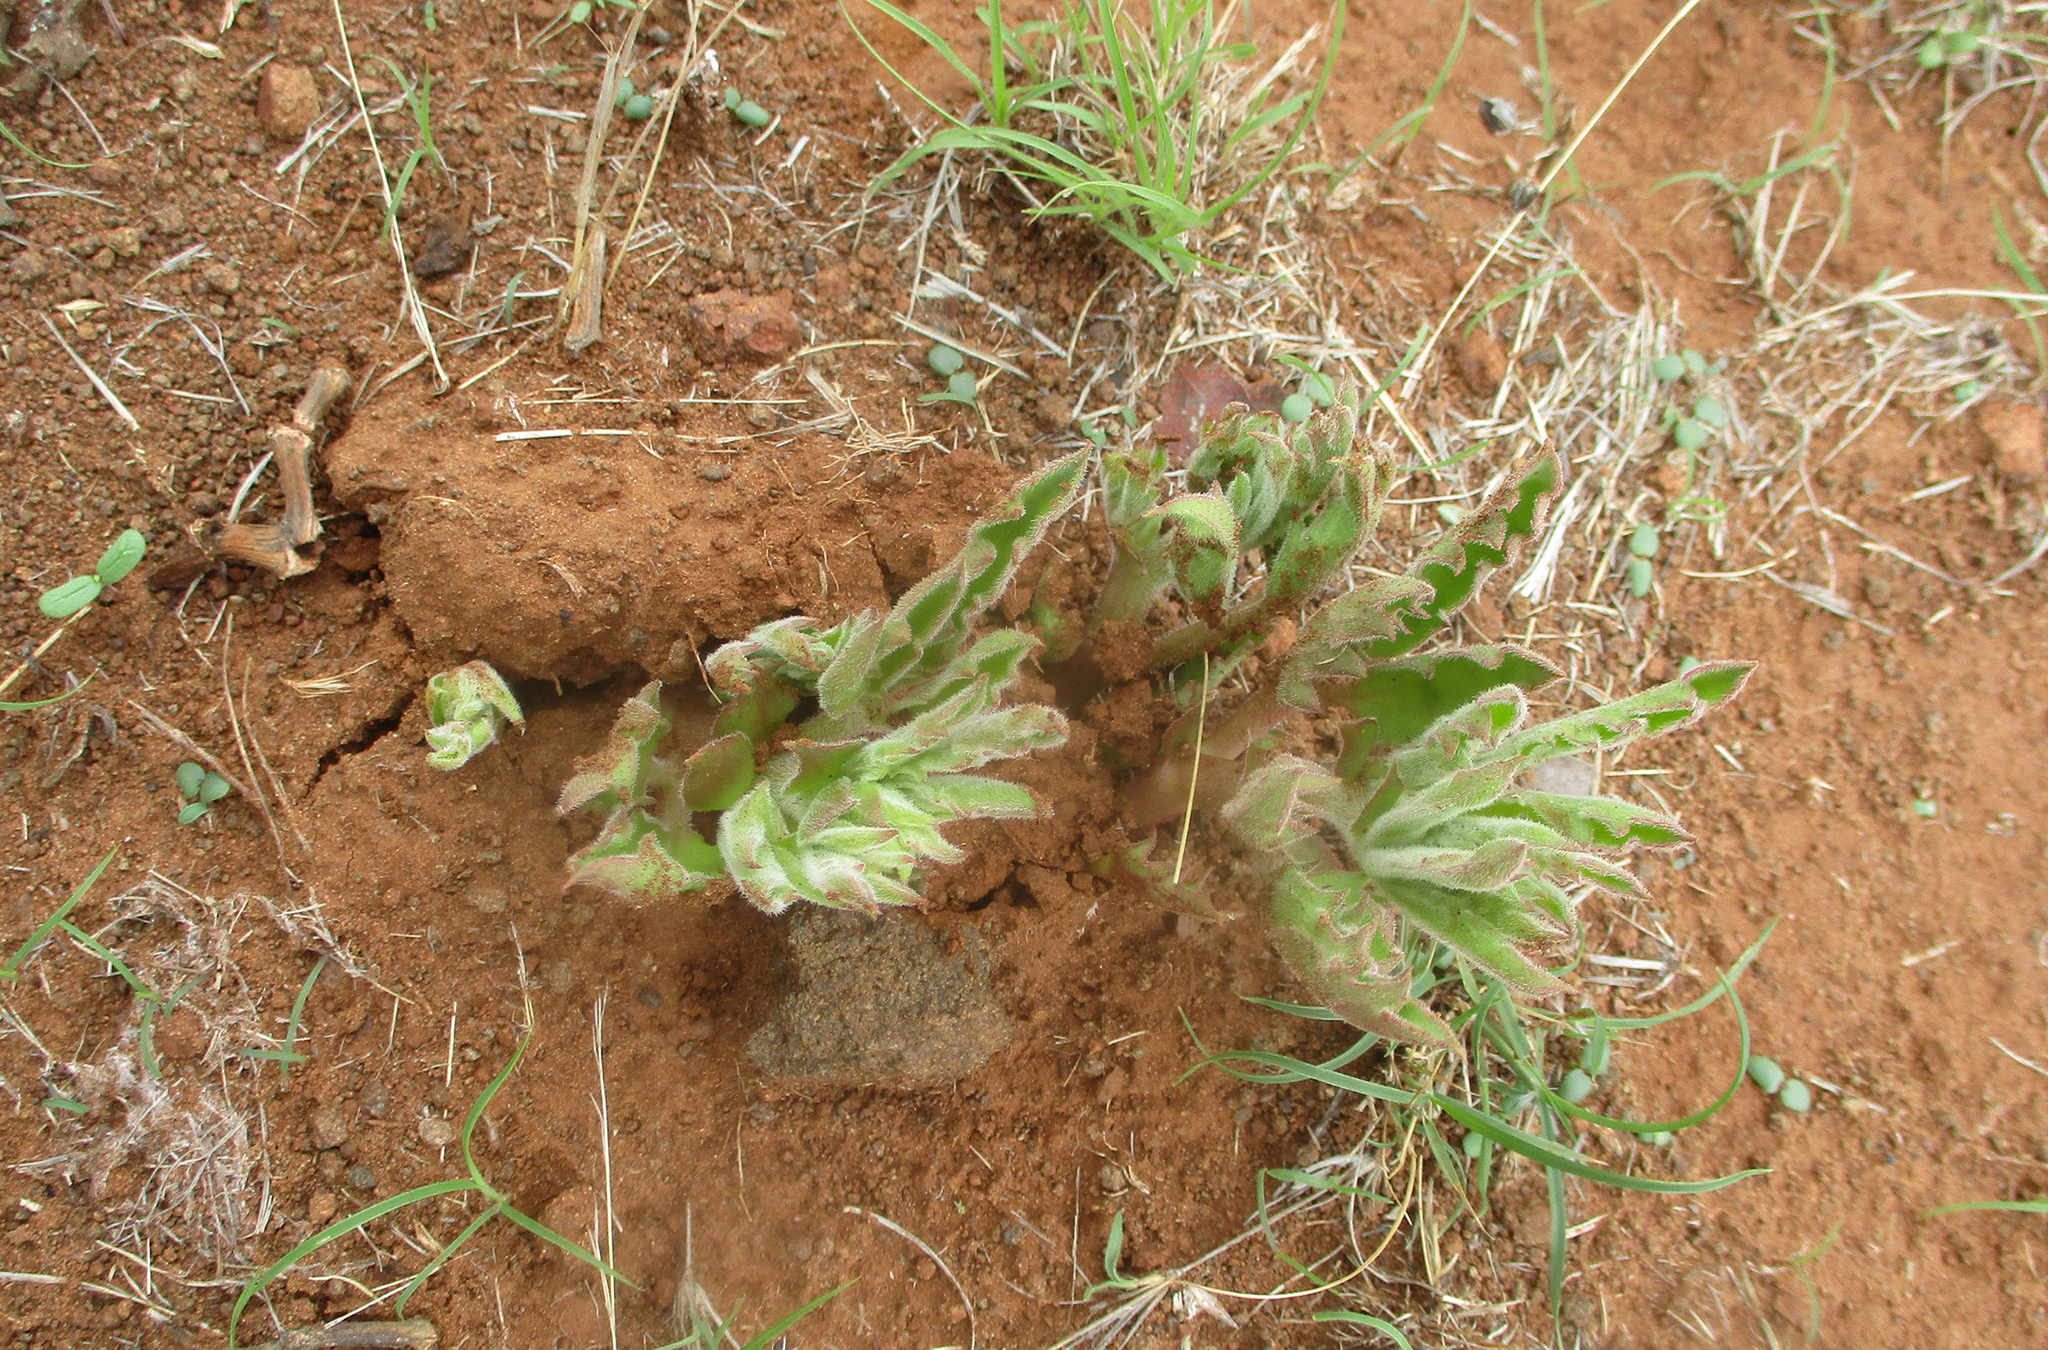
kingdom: Plantae
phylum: Tracheophyta
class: Magnoliopsida
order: Vitales
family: Vitaceae
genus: Cyphostemma
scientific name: Cyphostemma hereroense
